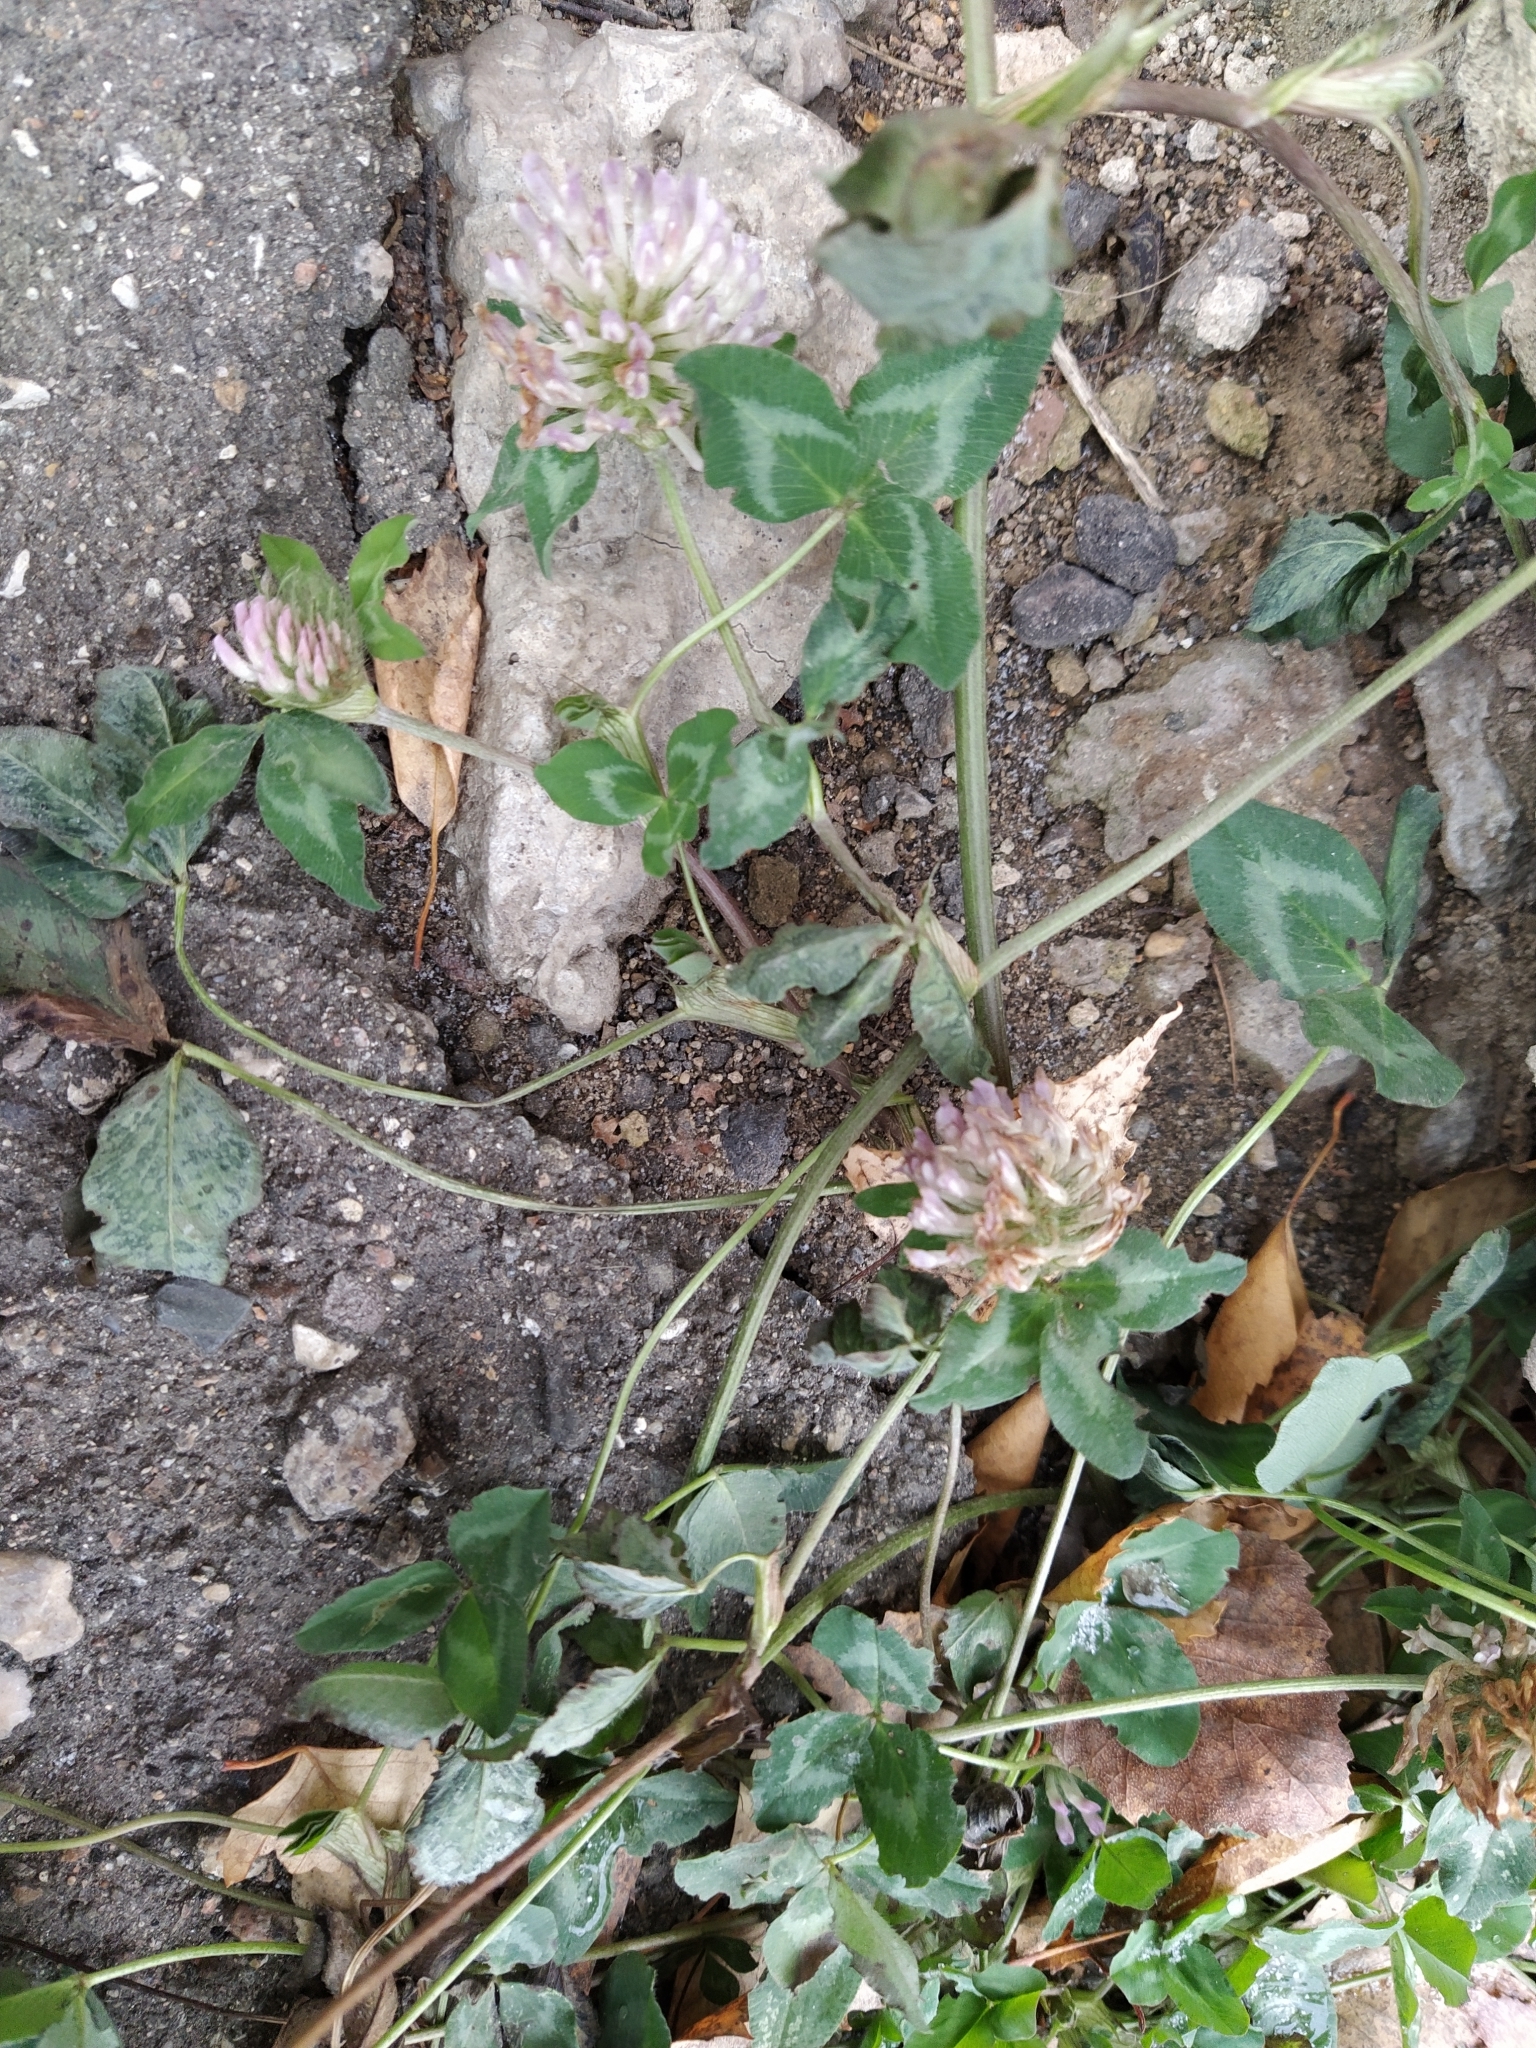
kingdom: Plantae
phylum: Tracheophyta
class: Magnoliopsida
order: Fabales
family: Fabaceae
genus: Trifolium
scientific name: Trifolium pratense
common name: Red clover
